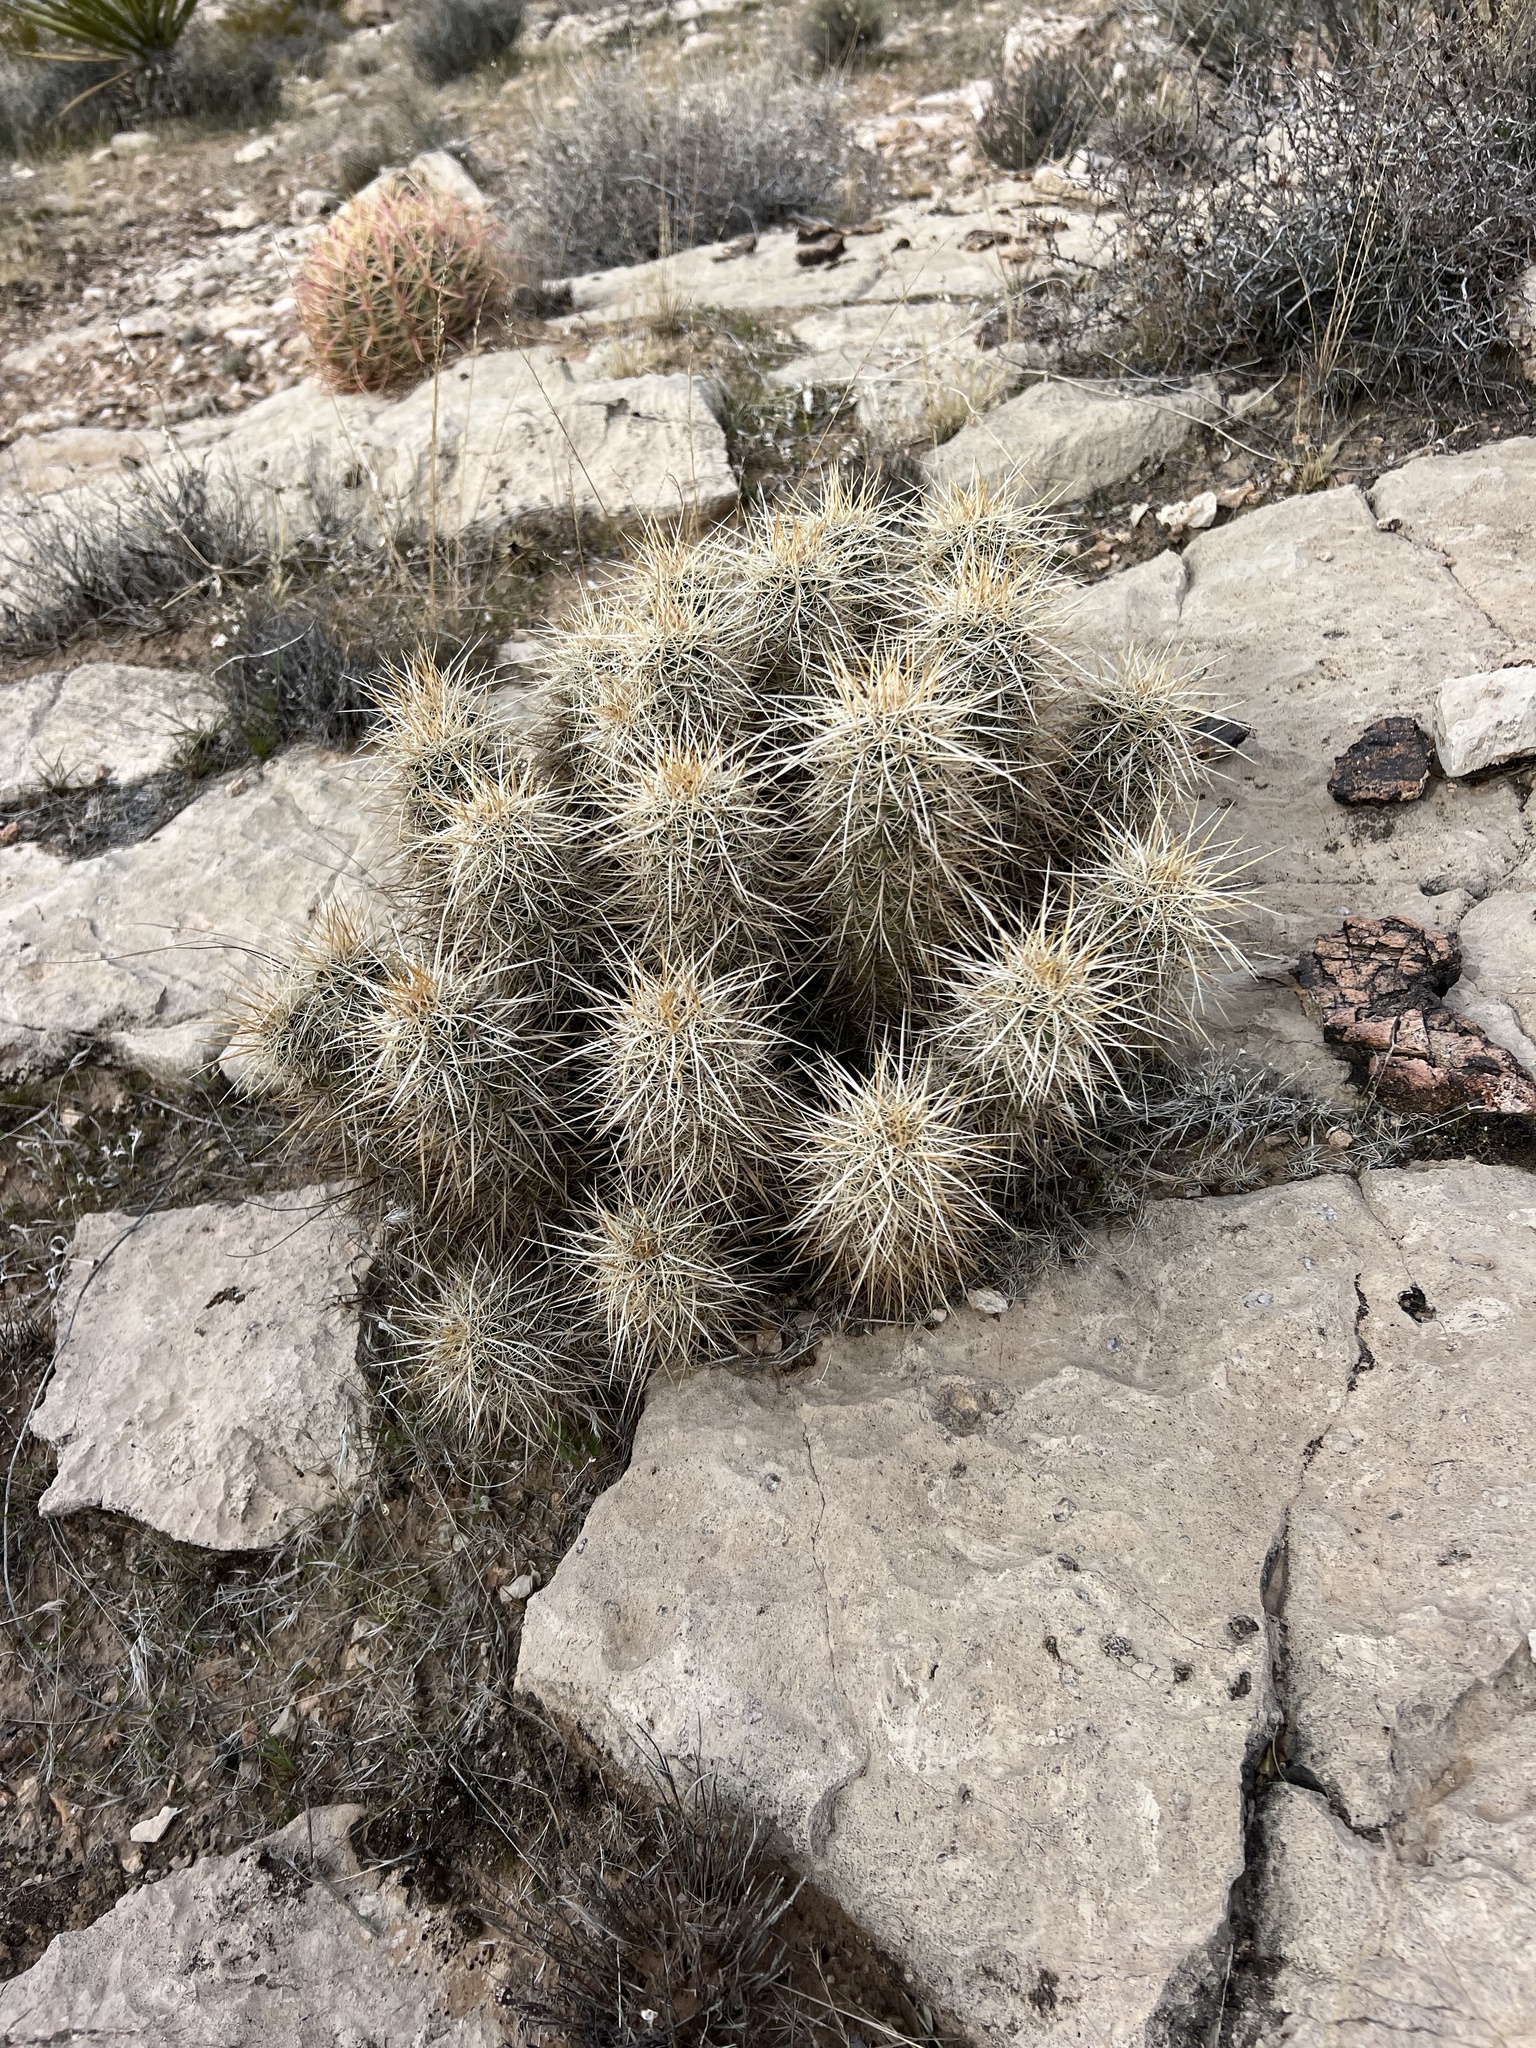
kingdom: Plantae
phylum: Tracheophyta
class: Magnoliopsida
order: Caryophyllales
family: Cactaceae
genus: Echinocereus
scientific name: Echinocereus engelmannii
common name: Engelmann's hedgehog cactus
